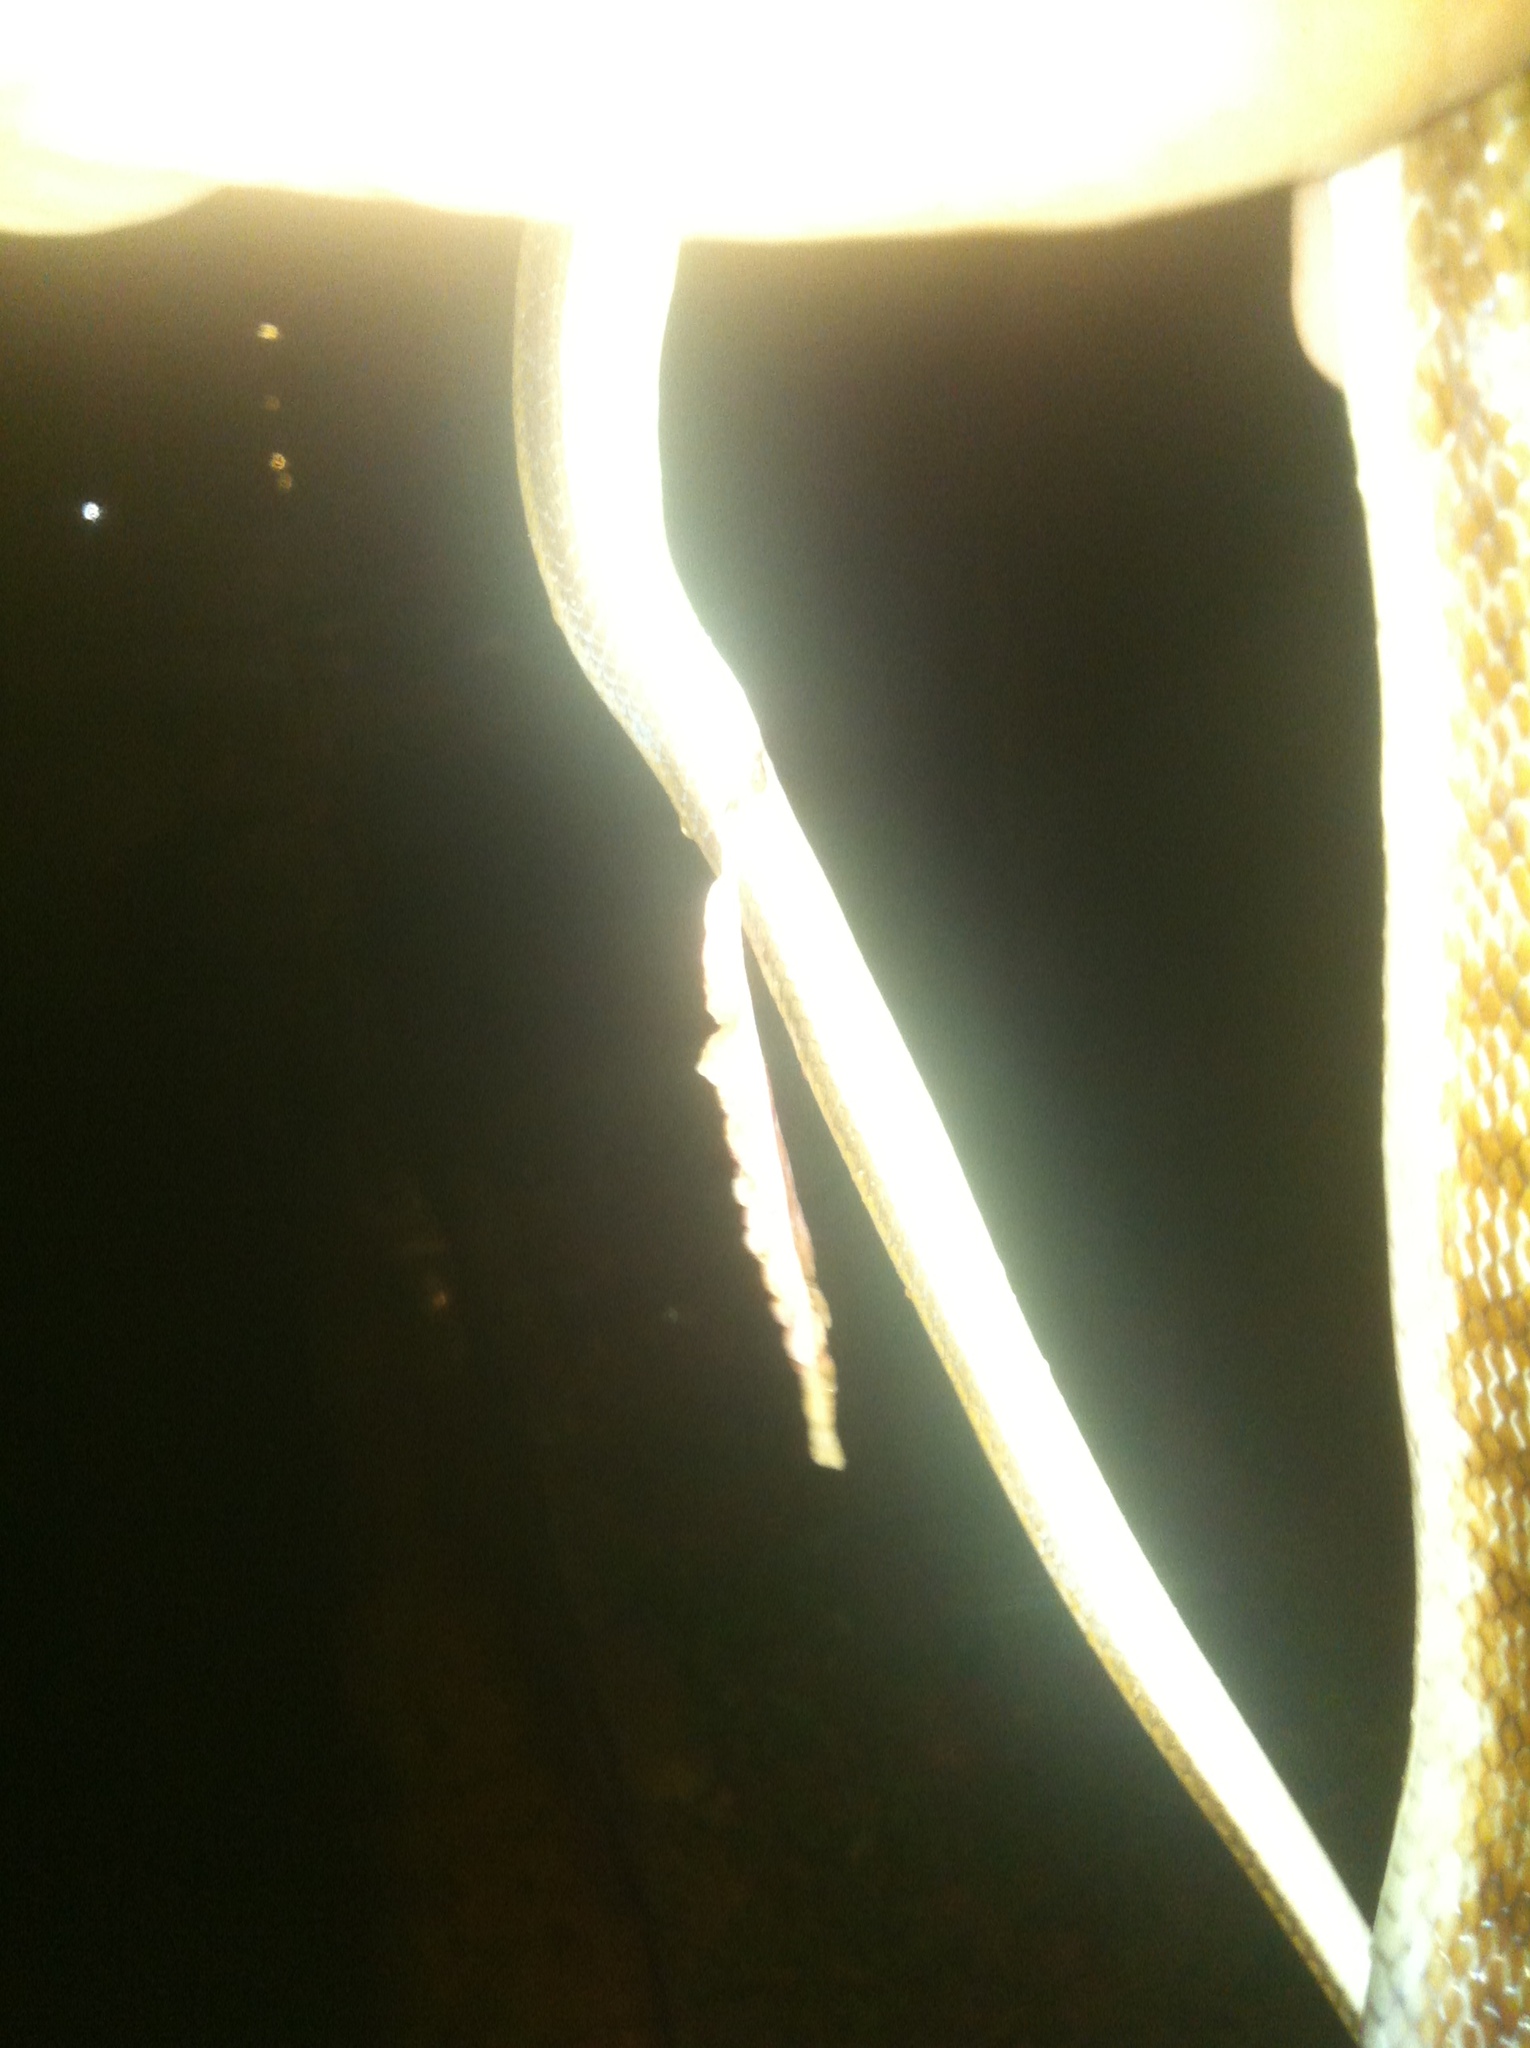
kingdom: Animalia
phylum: Chordata
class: Squamata
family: Colubridae
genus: Coelognathus
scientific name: Coelognathus helena
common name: Trinket snake
